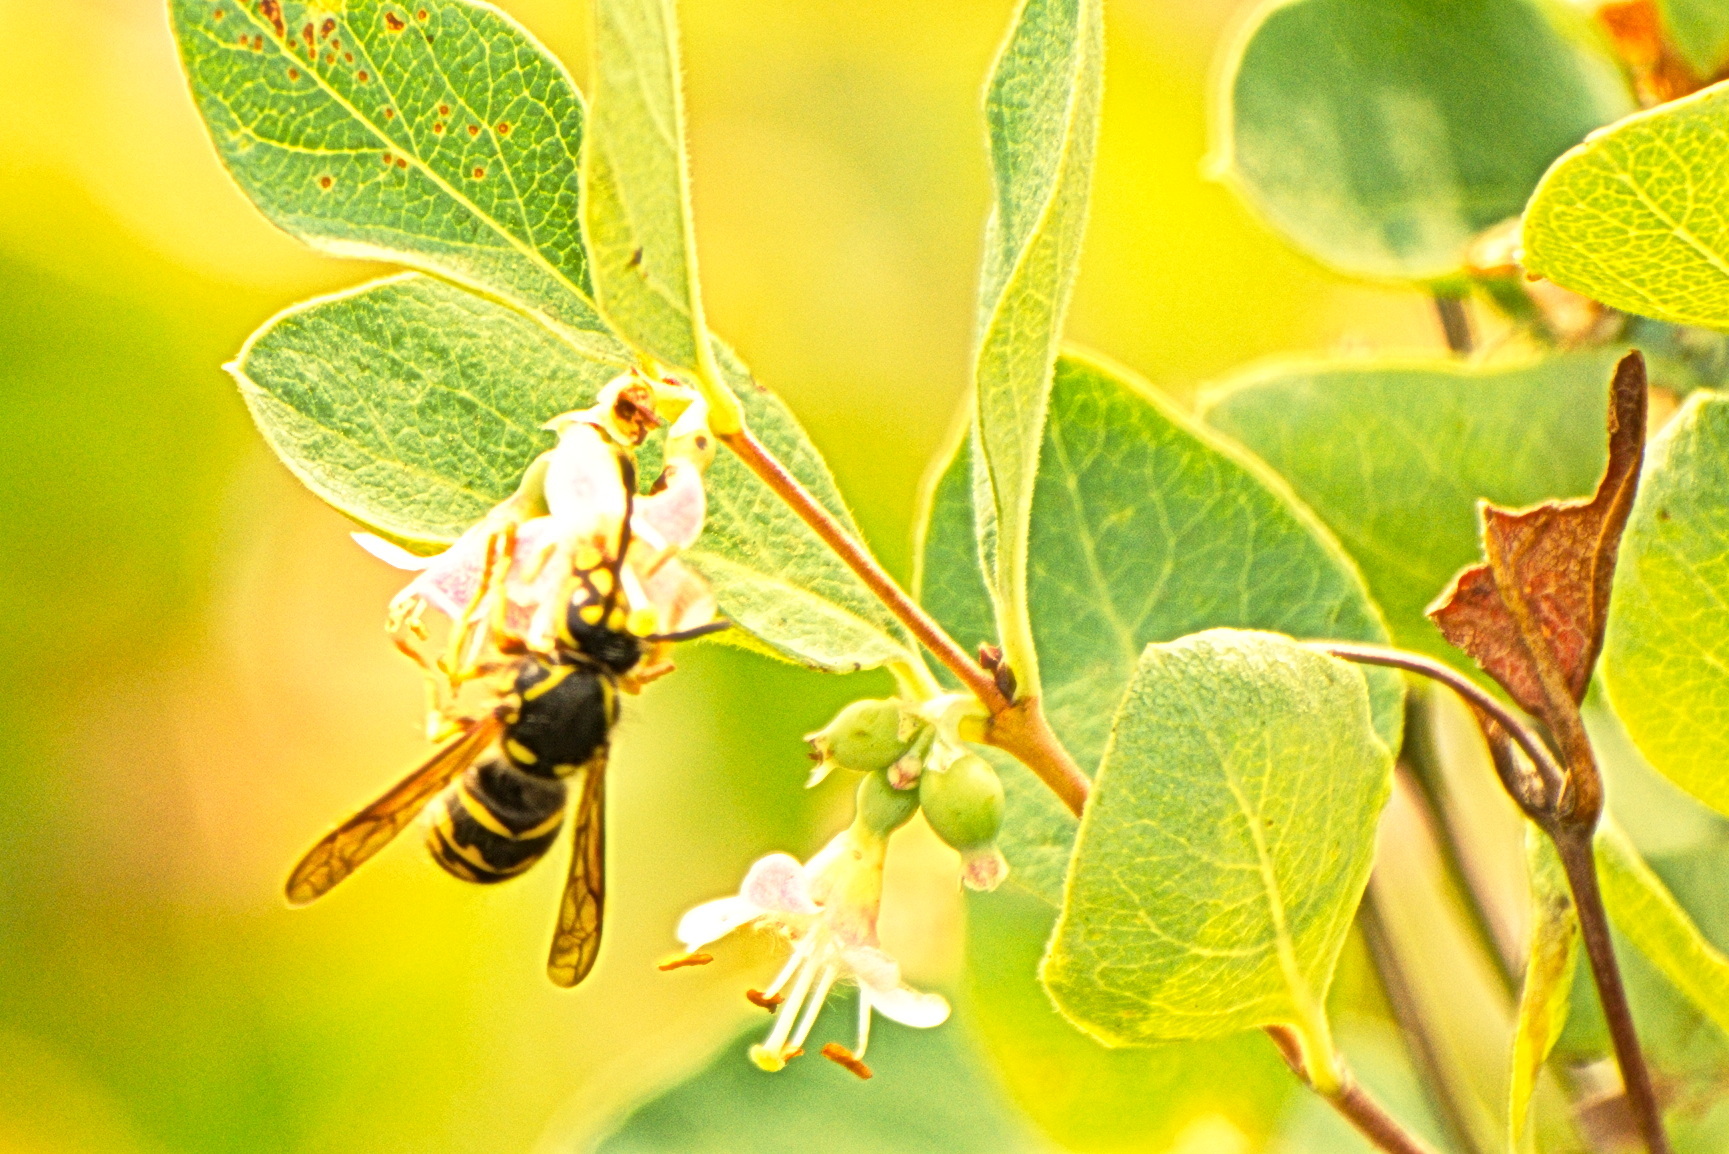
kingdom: Animalia
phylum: Arthropoda
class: Insecta
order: Hymenoptera
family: Vespidae
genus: Dolichovespula
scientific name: Dolichovespula arenaria
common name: Aerial yellowjacket
